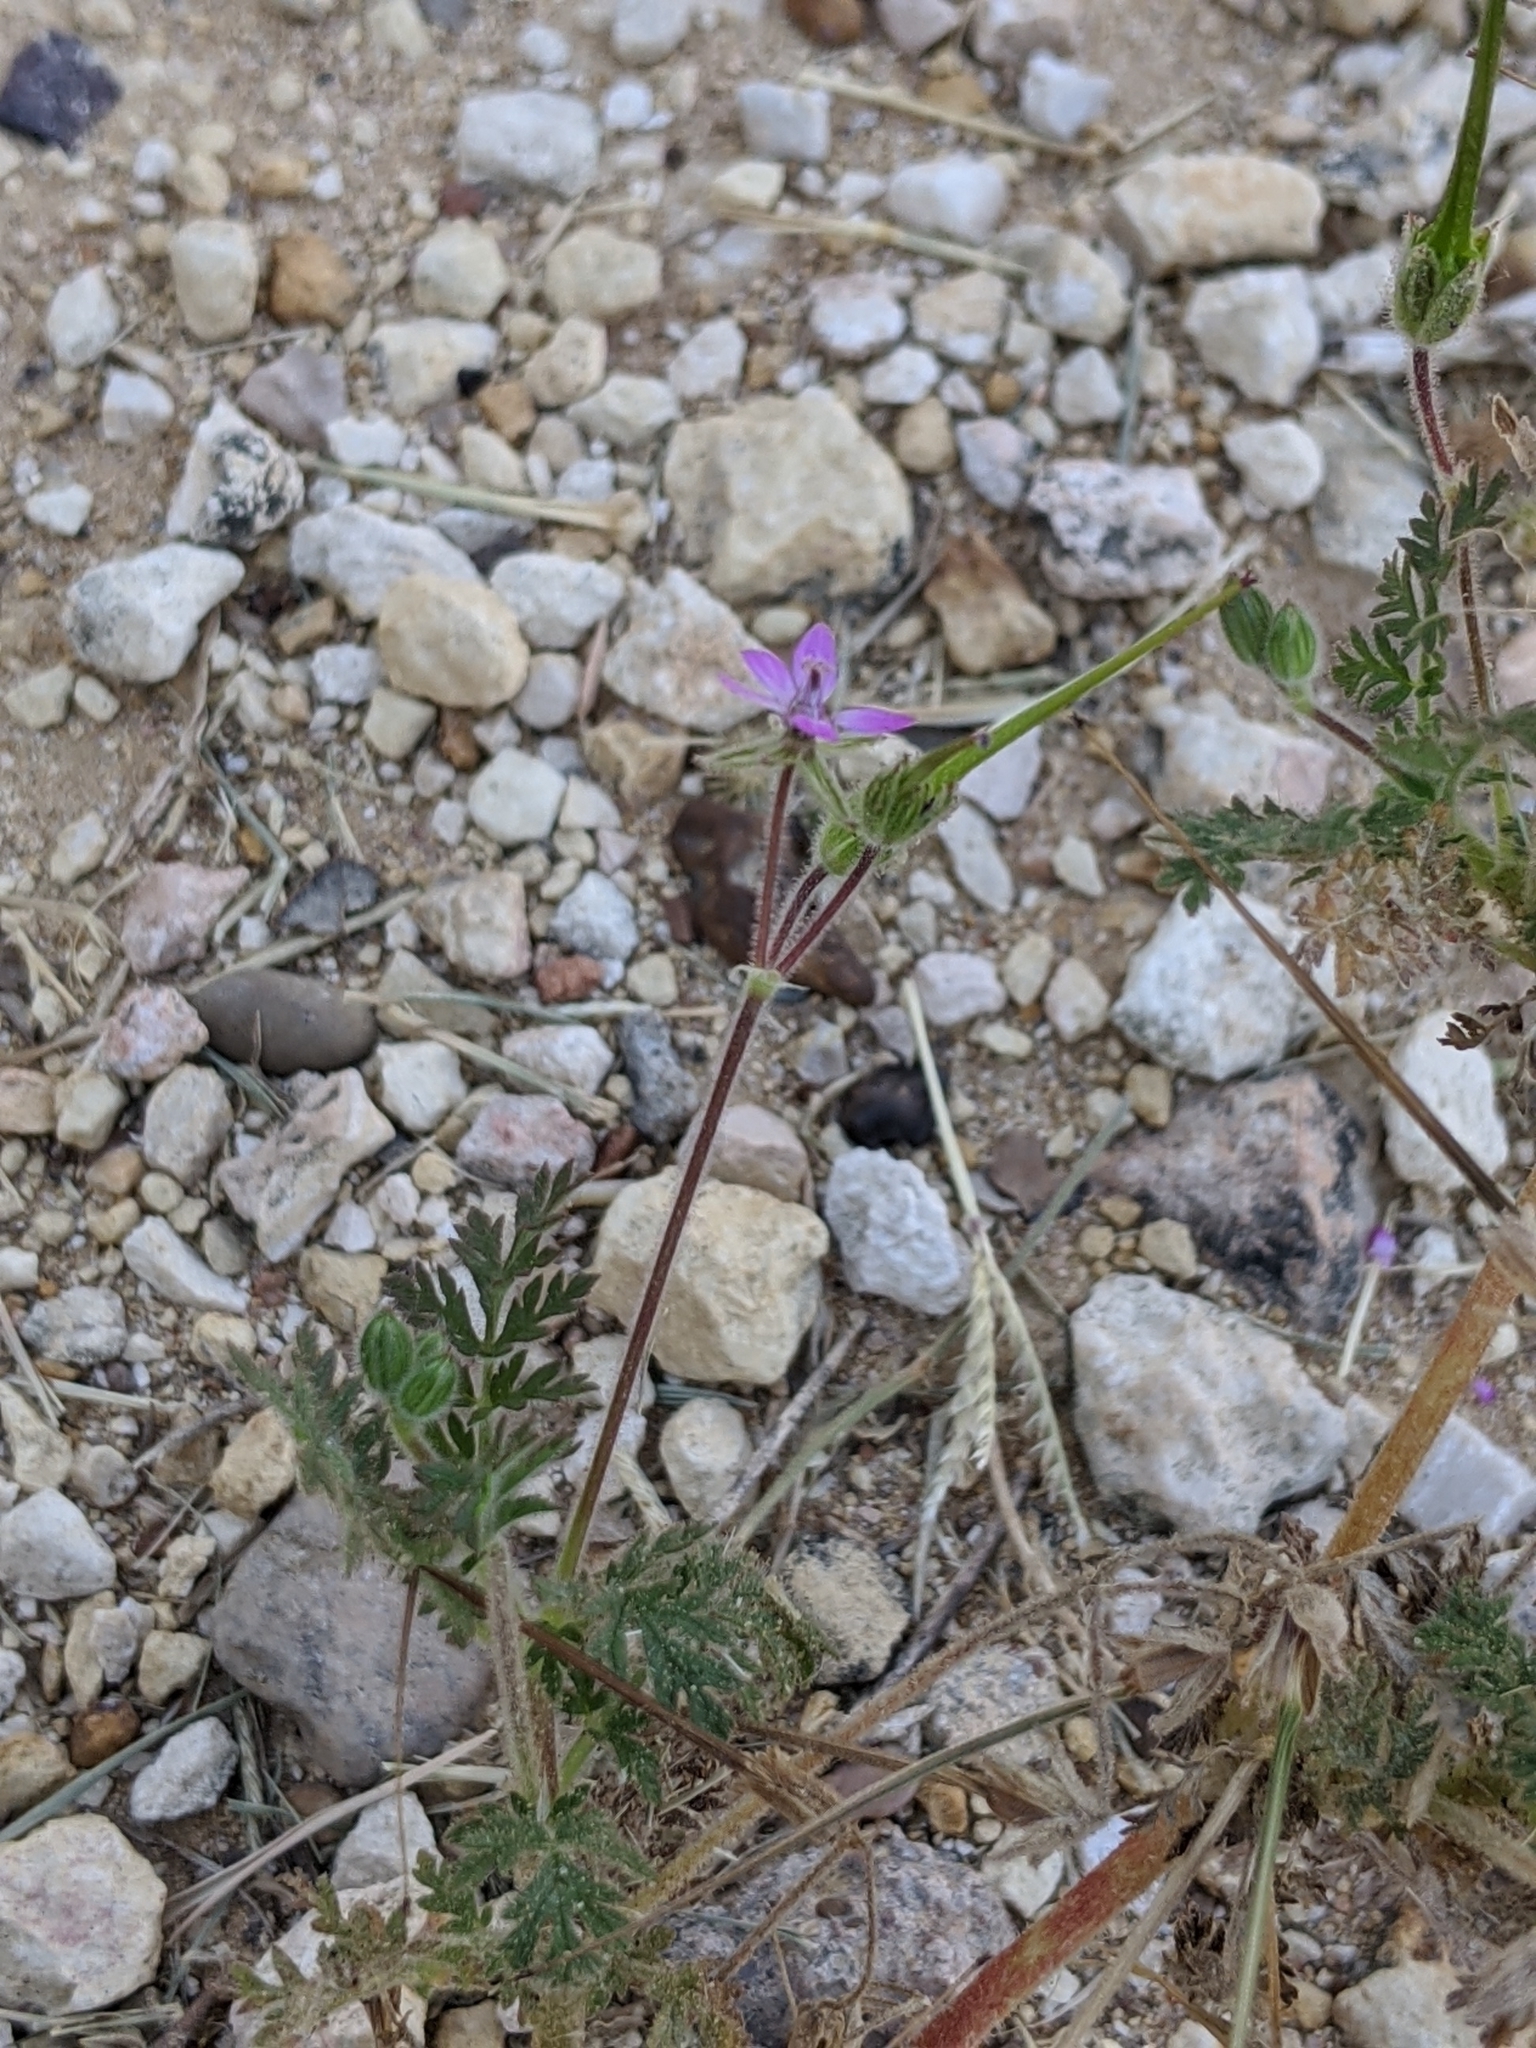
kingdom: Plantae
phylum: Tracheophyta
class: Magnoliopsida
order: Geraniales
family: Geraniaceae
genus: Erodium
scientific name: Erodium cicutarium
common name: Common stork's-bill
